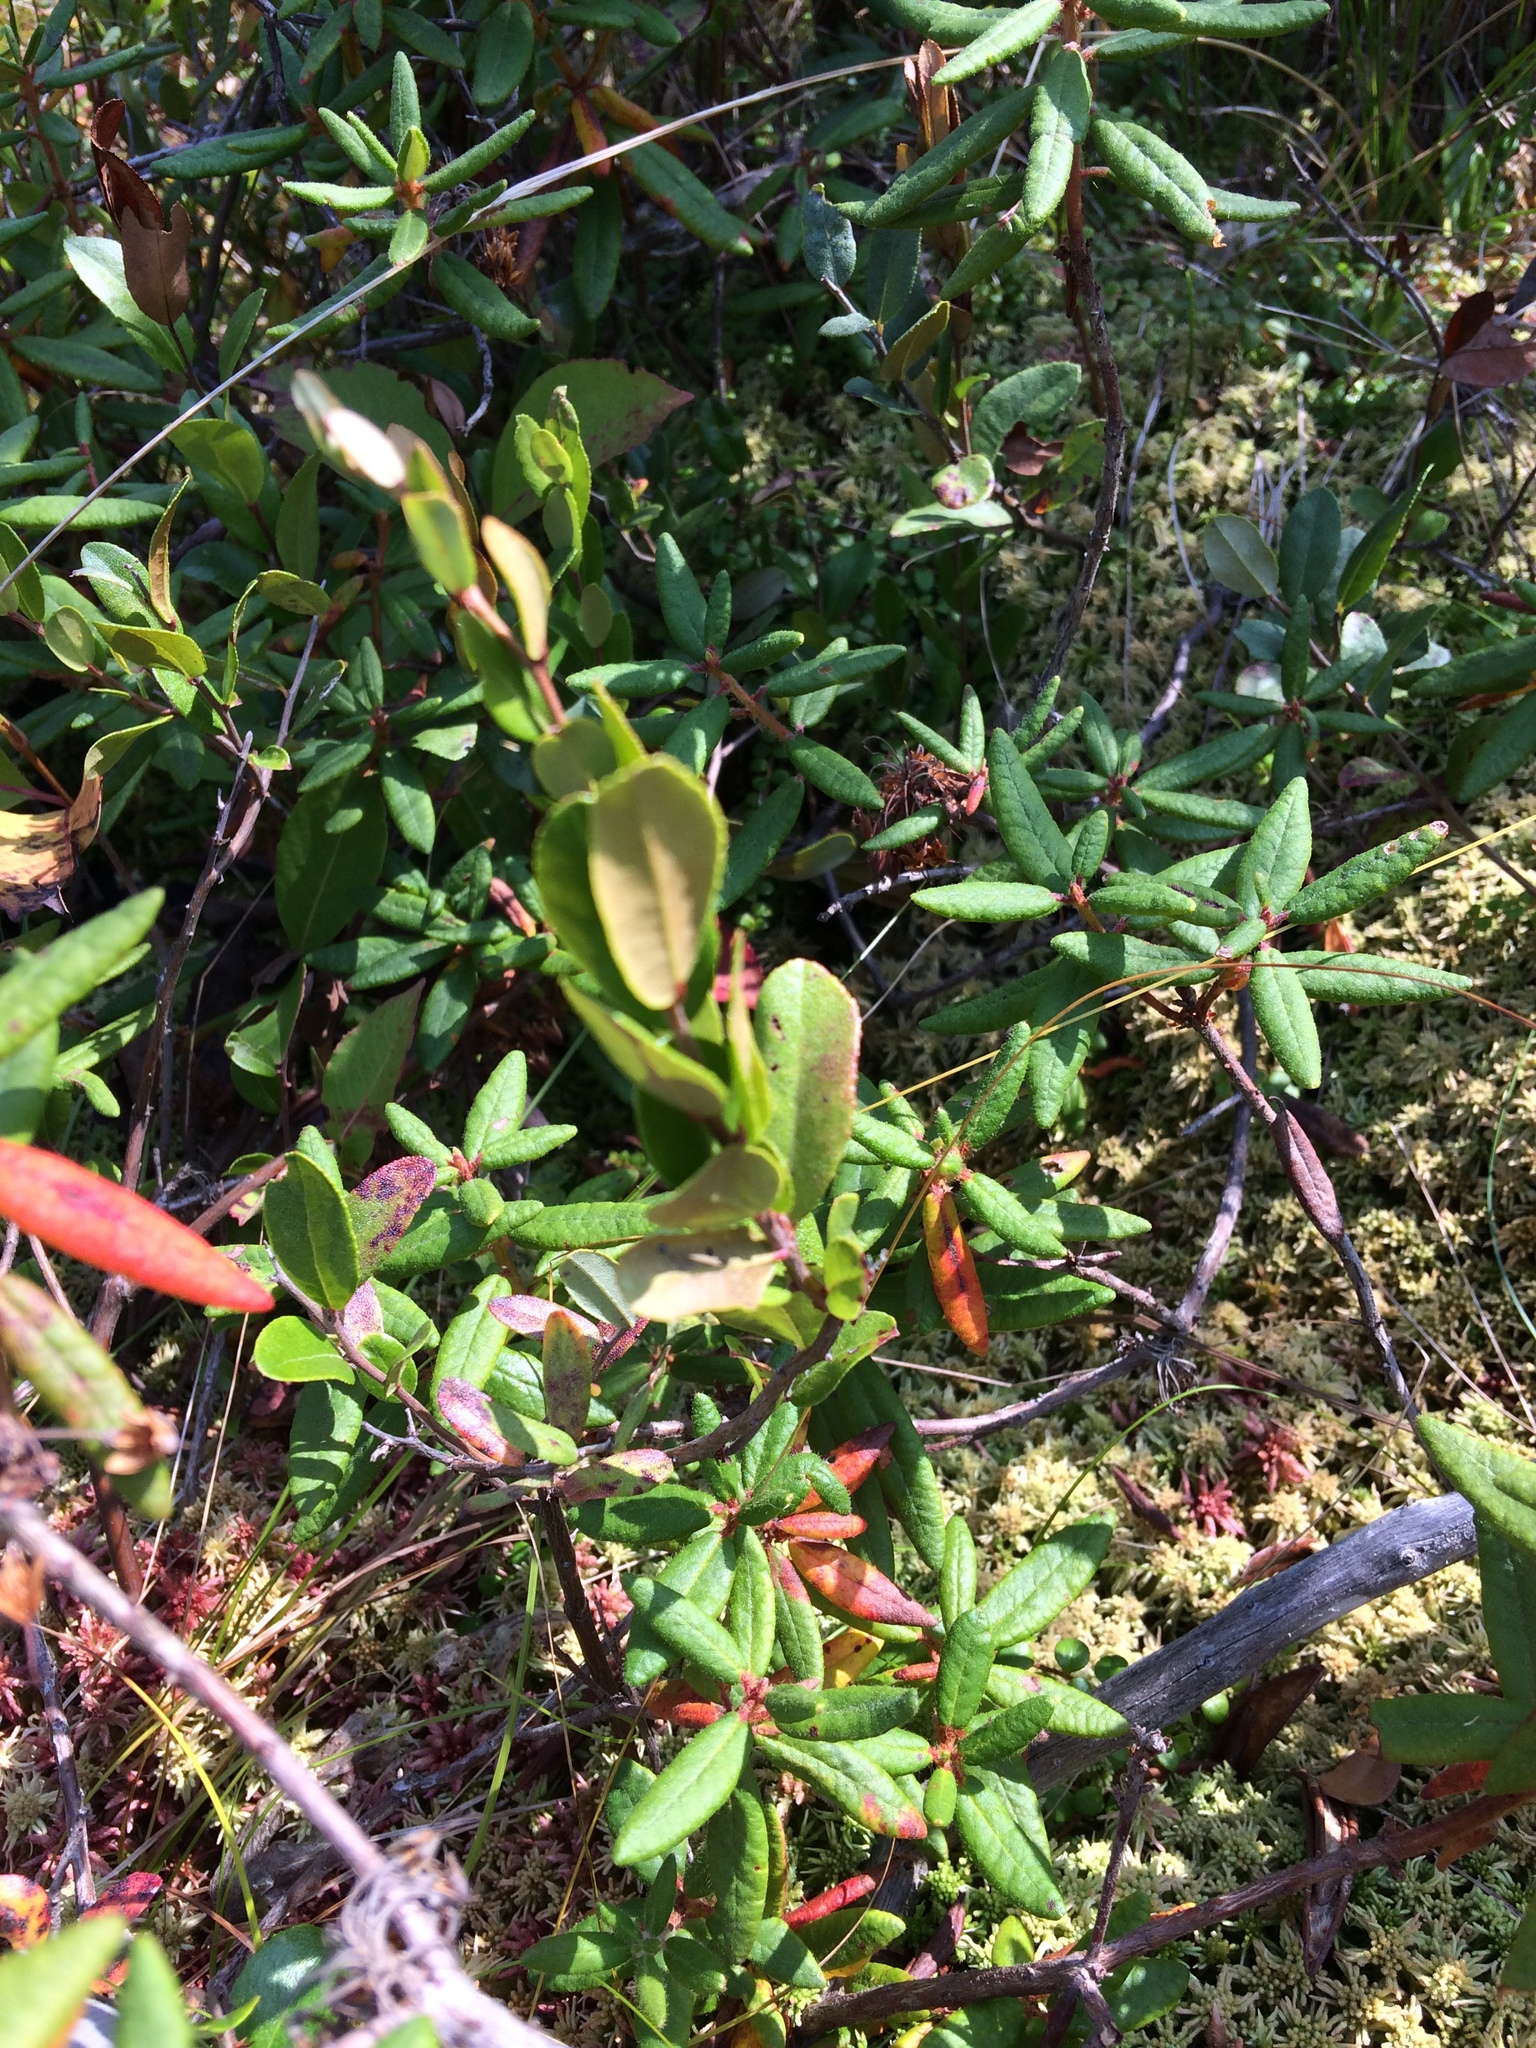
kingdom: Plantae
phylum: Tracheophyta
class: Magnoliopsida
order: Ericales
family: Ericaceae
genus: Chamaedaphne
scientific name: Chamaedaphne calyculata
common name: Leatherleaf
